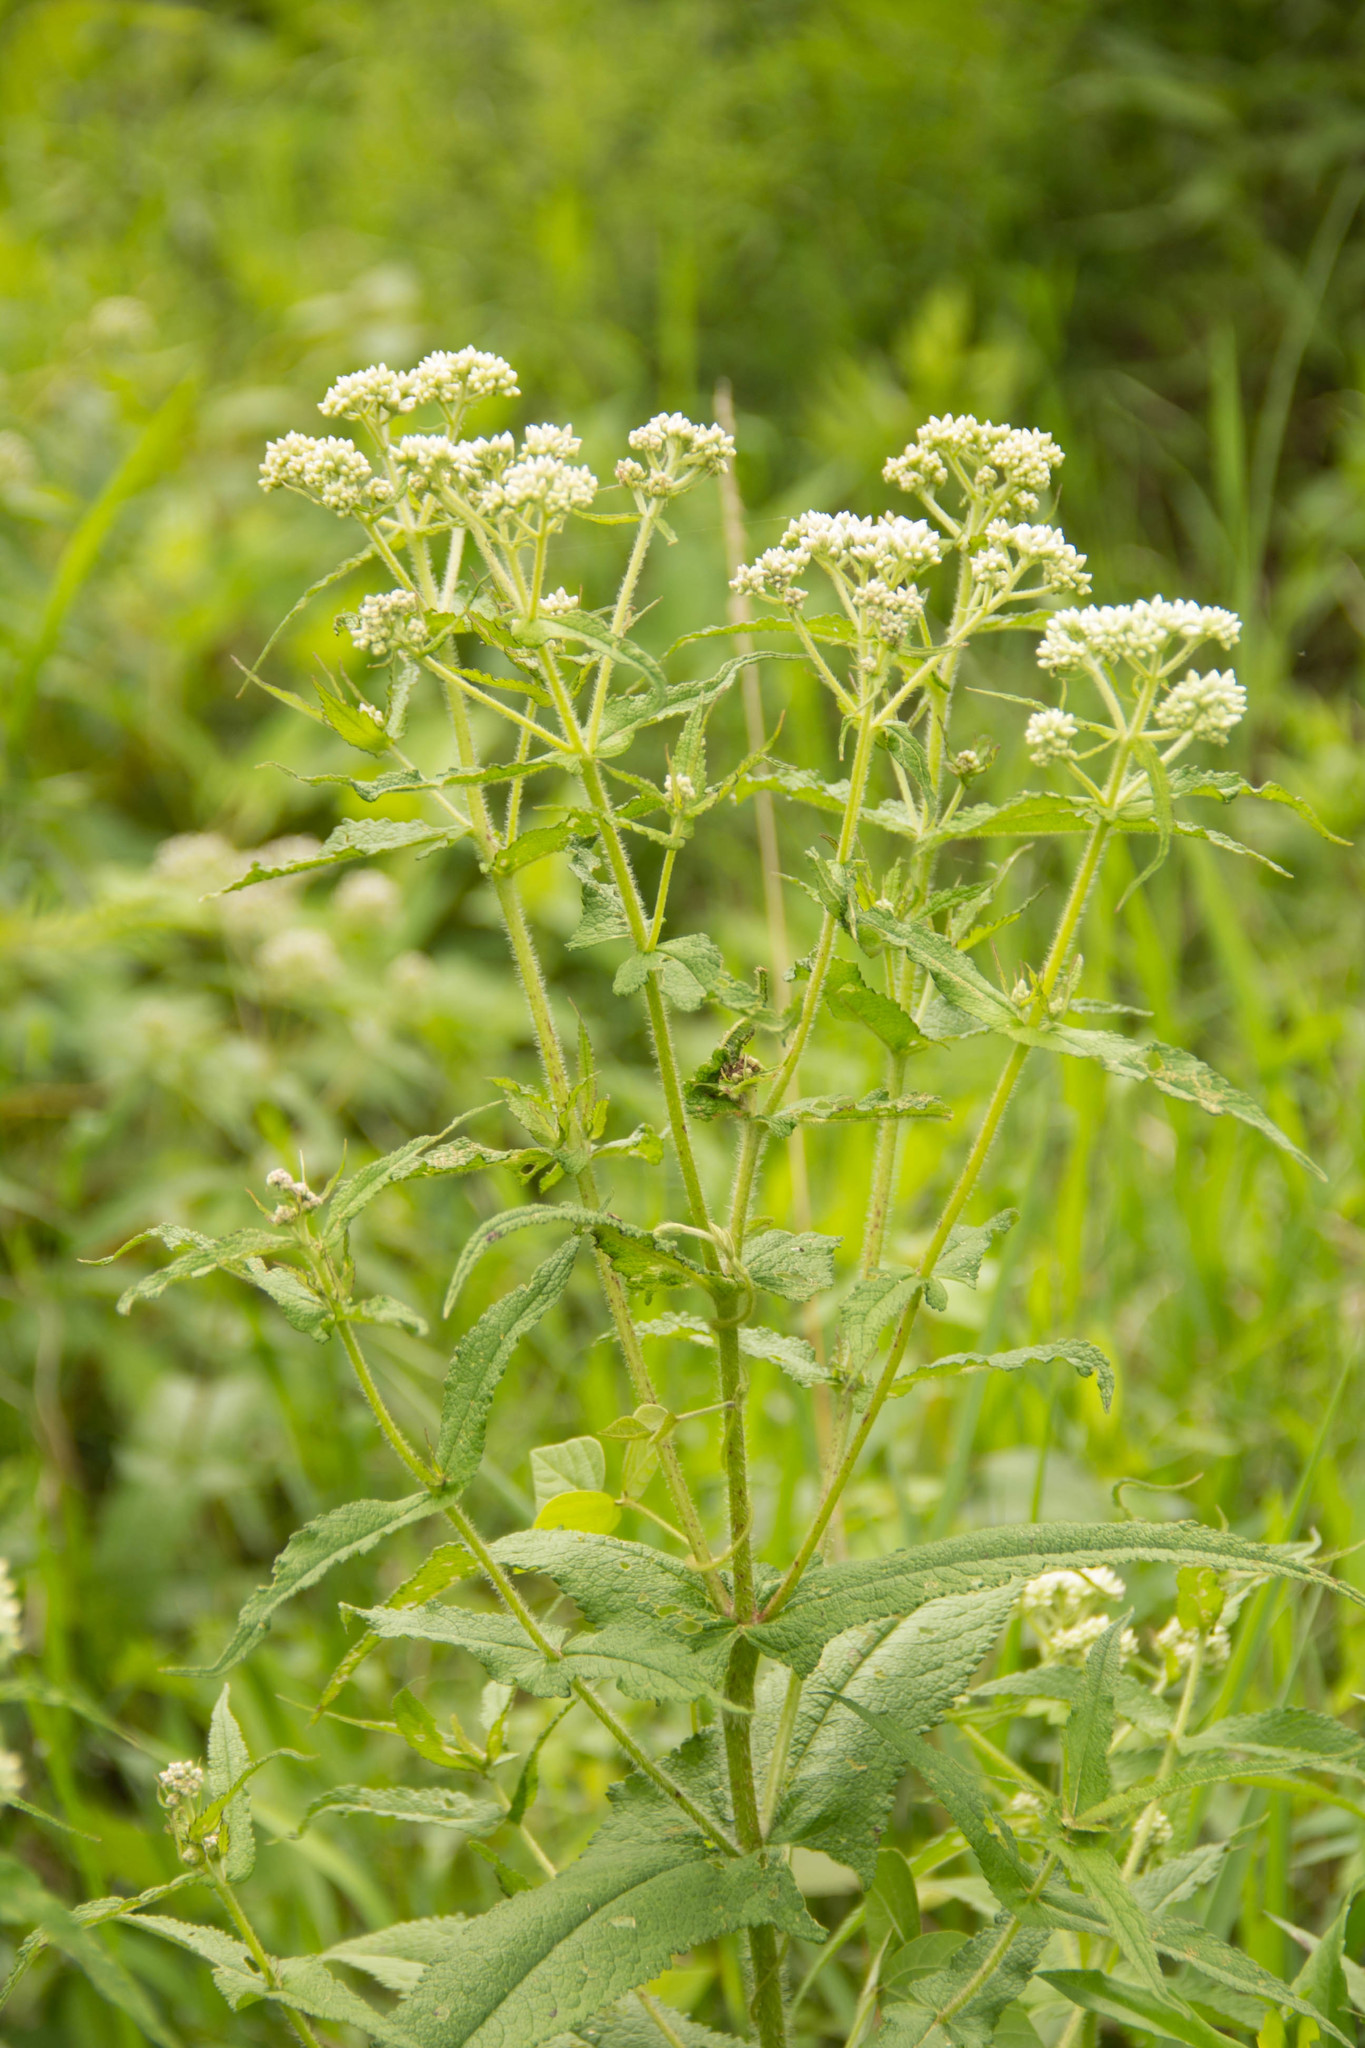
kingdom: Plantae
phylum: Tracheophyta
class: Magnoliopsida
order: Asterales
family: Asteraceae
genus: Eupatorium
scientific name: Eupatorium perfoliatum
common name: Boneset
